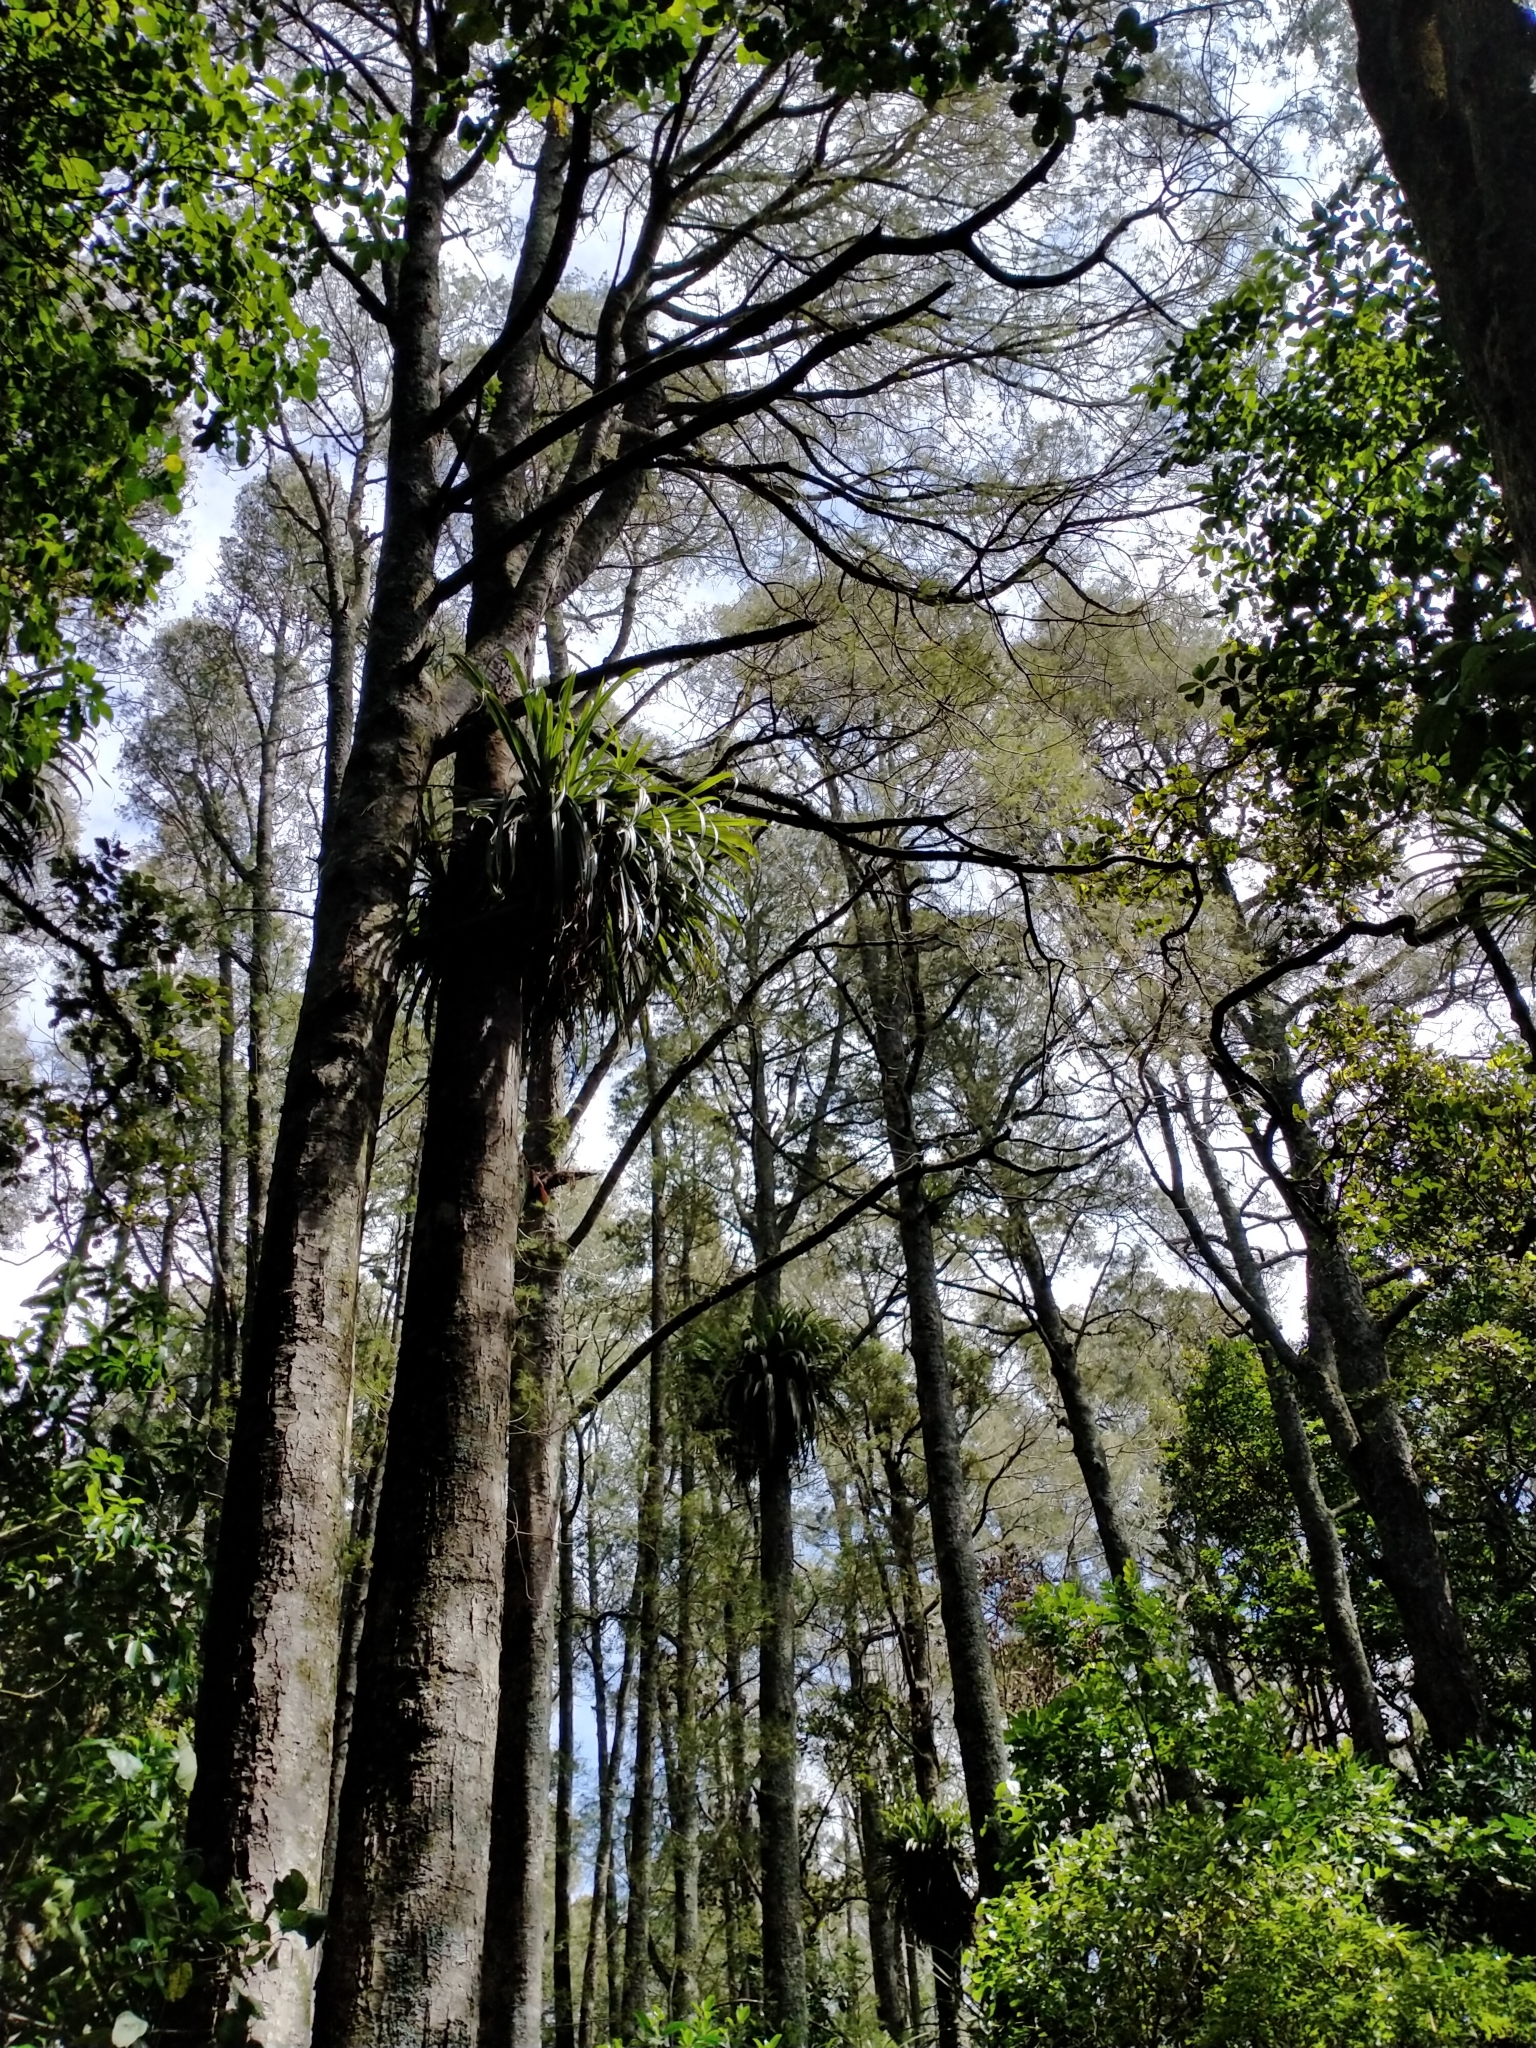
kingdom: Plantae
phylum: Tracheophyta
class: Pinopsida
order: Pinales
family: Podocarpaceae
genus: Dacrycarpus
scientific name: Dacrycarpus dacrydioides
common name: White pine
